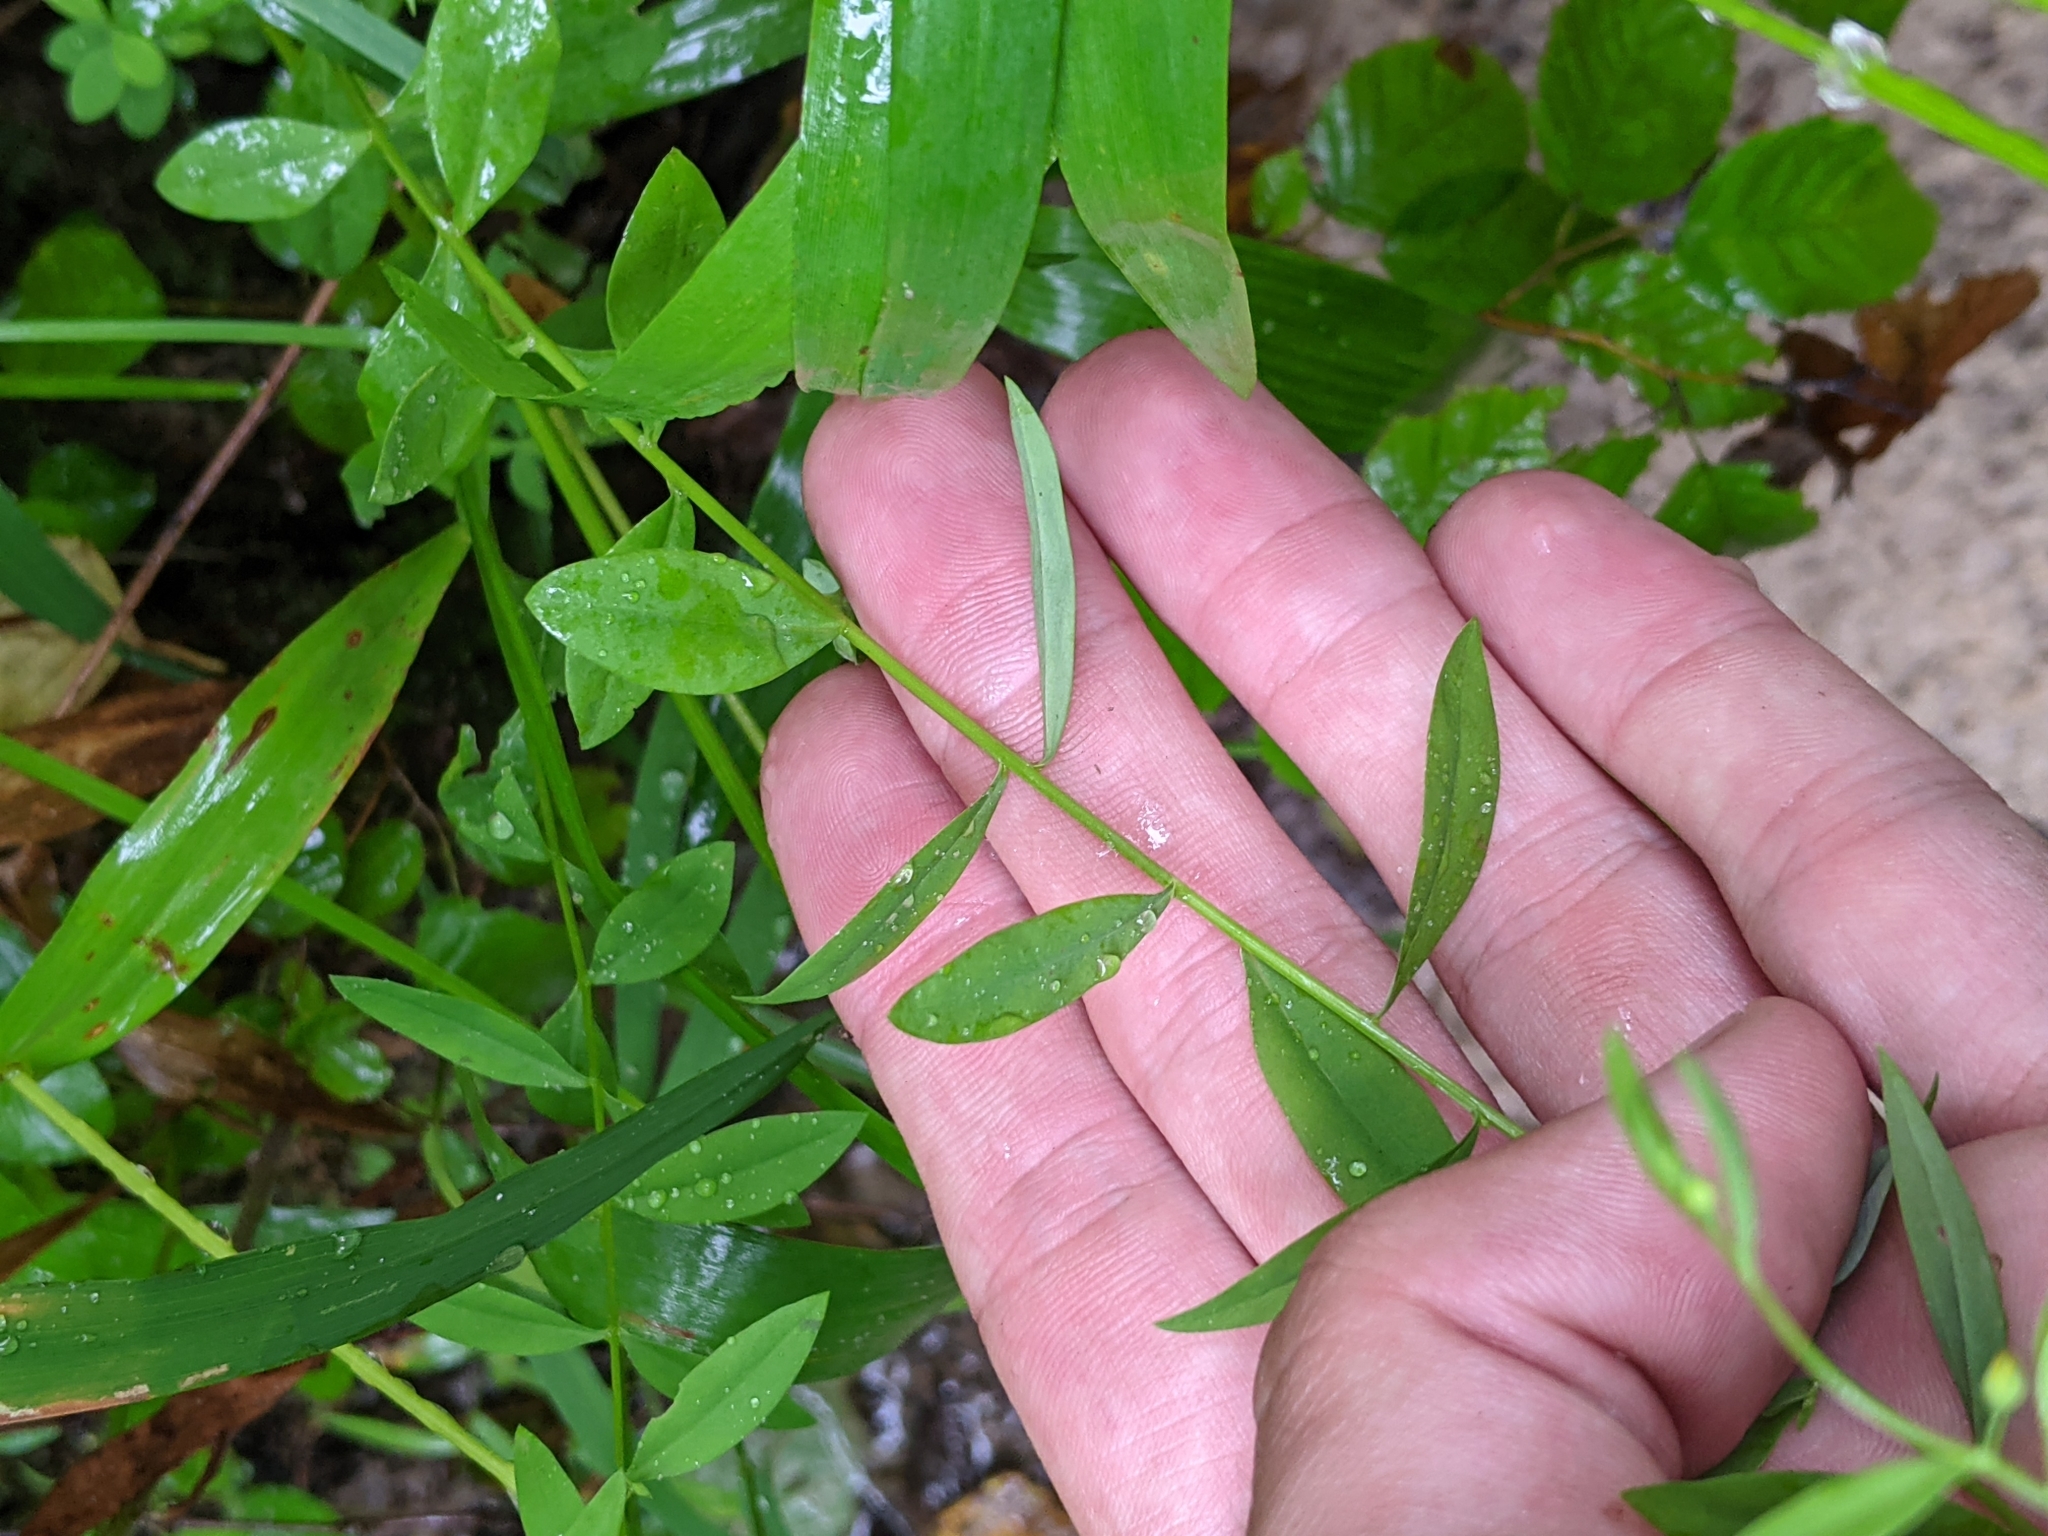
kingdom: Plantae
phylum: Tracheophyta
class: Magnoliopsida
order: Malpighiales
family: Linaceae
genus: Linum
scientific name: Linum striatum
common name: Ridged yellow flax
